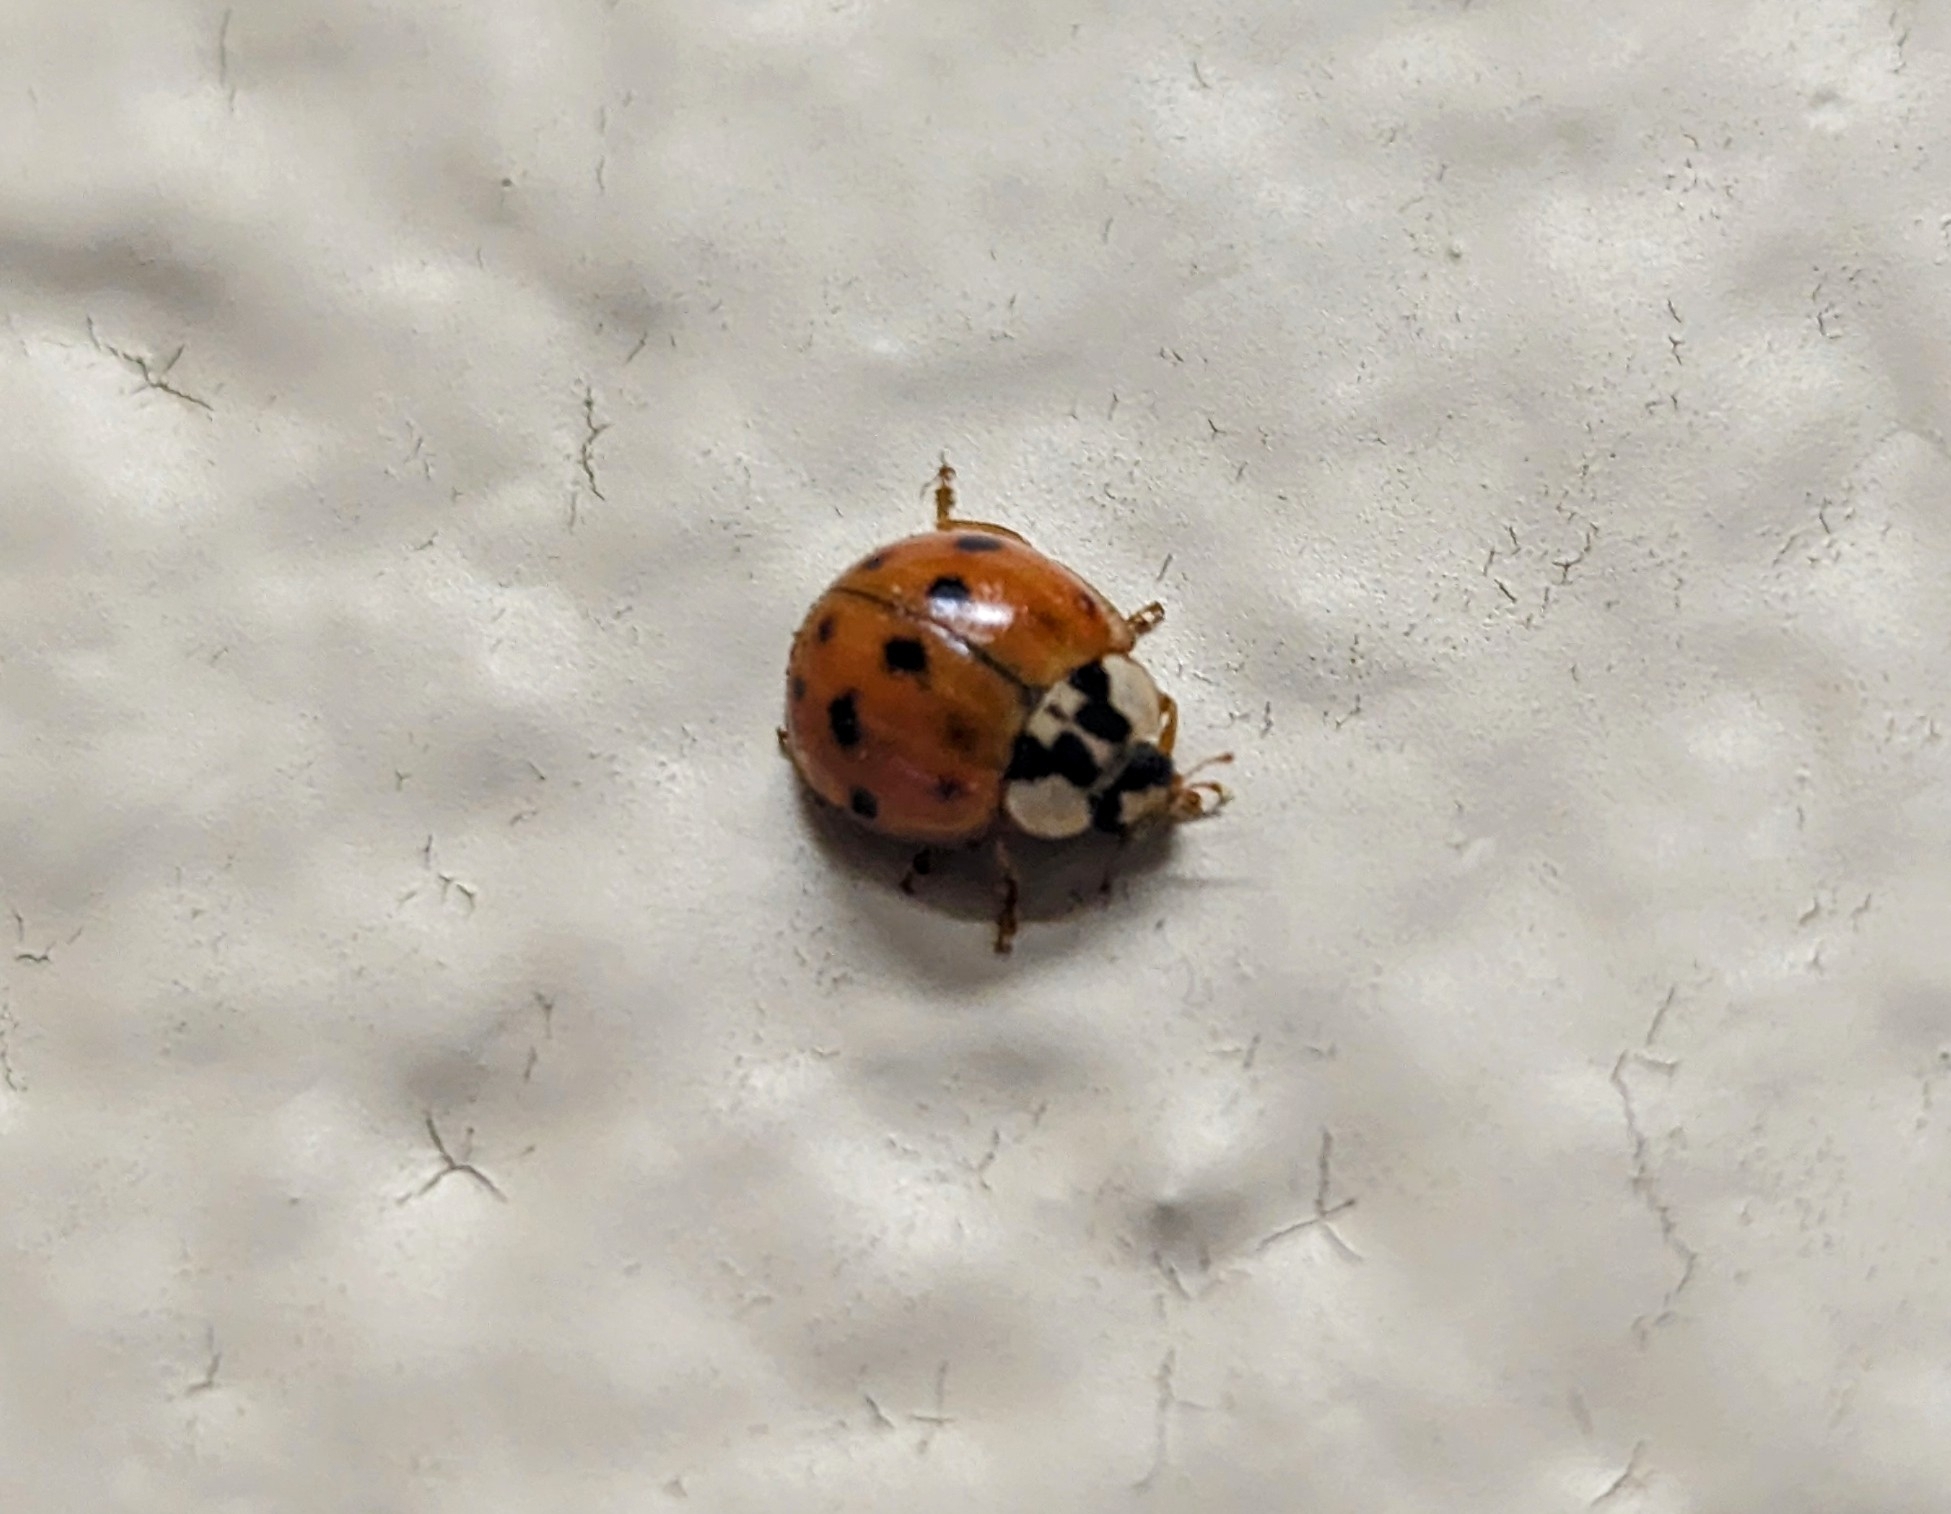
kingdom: Animalia
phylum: Arthropoda
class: Insecta
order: Coleoptera
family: Coccinellidae
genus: Harmonia
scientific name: Harmonia axyridis
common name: Harlequin ladybird
